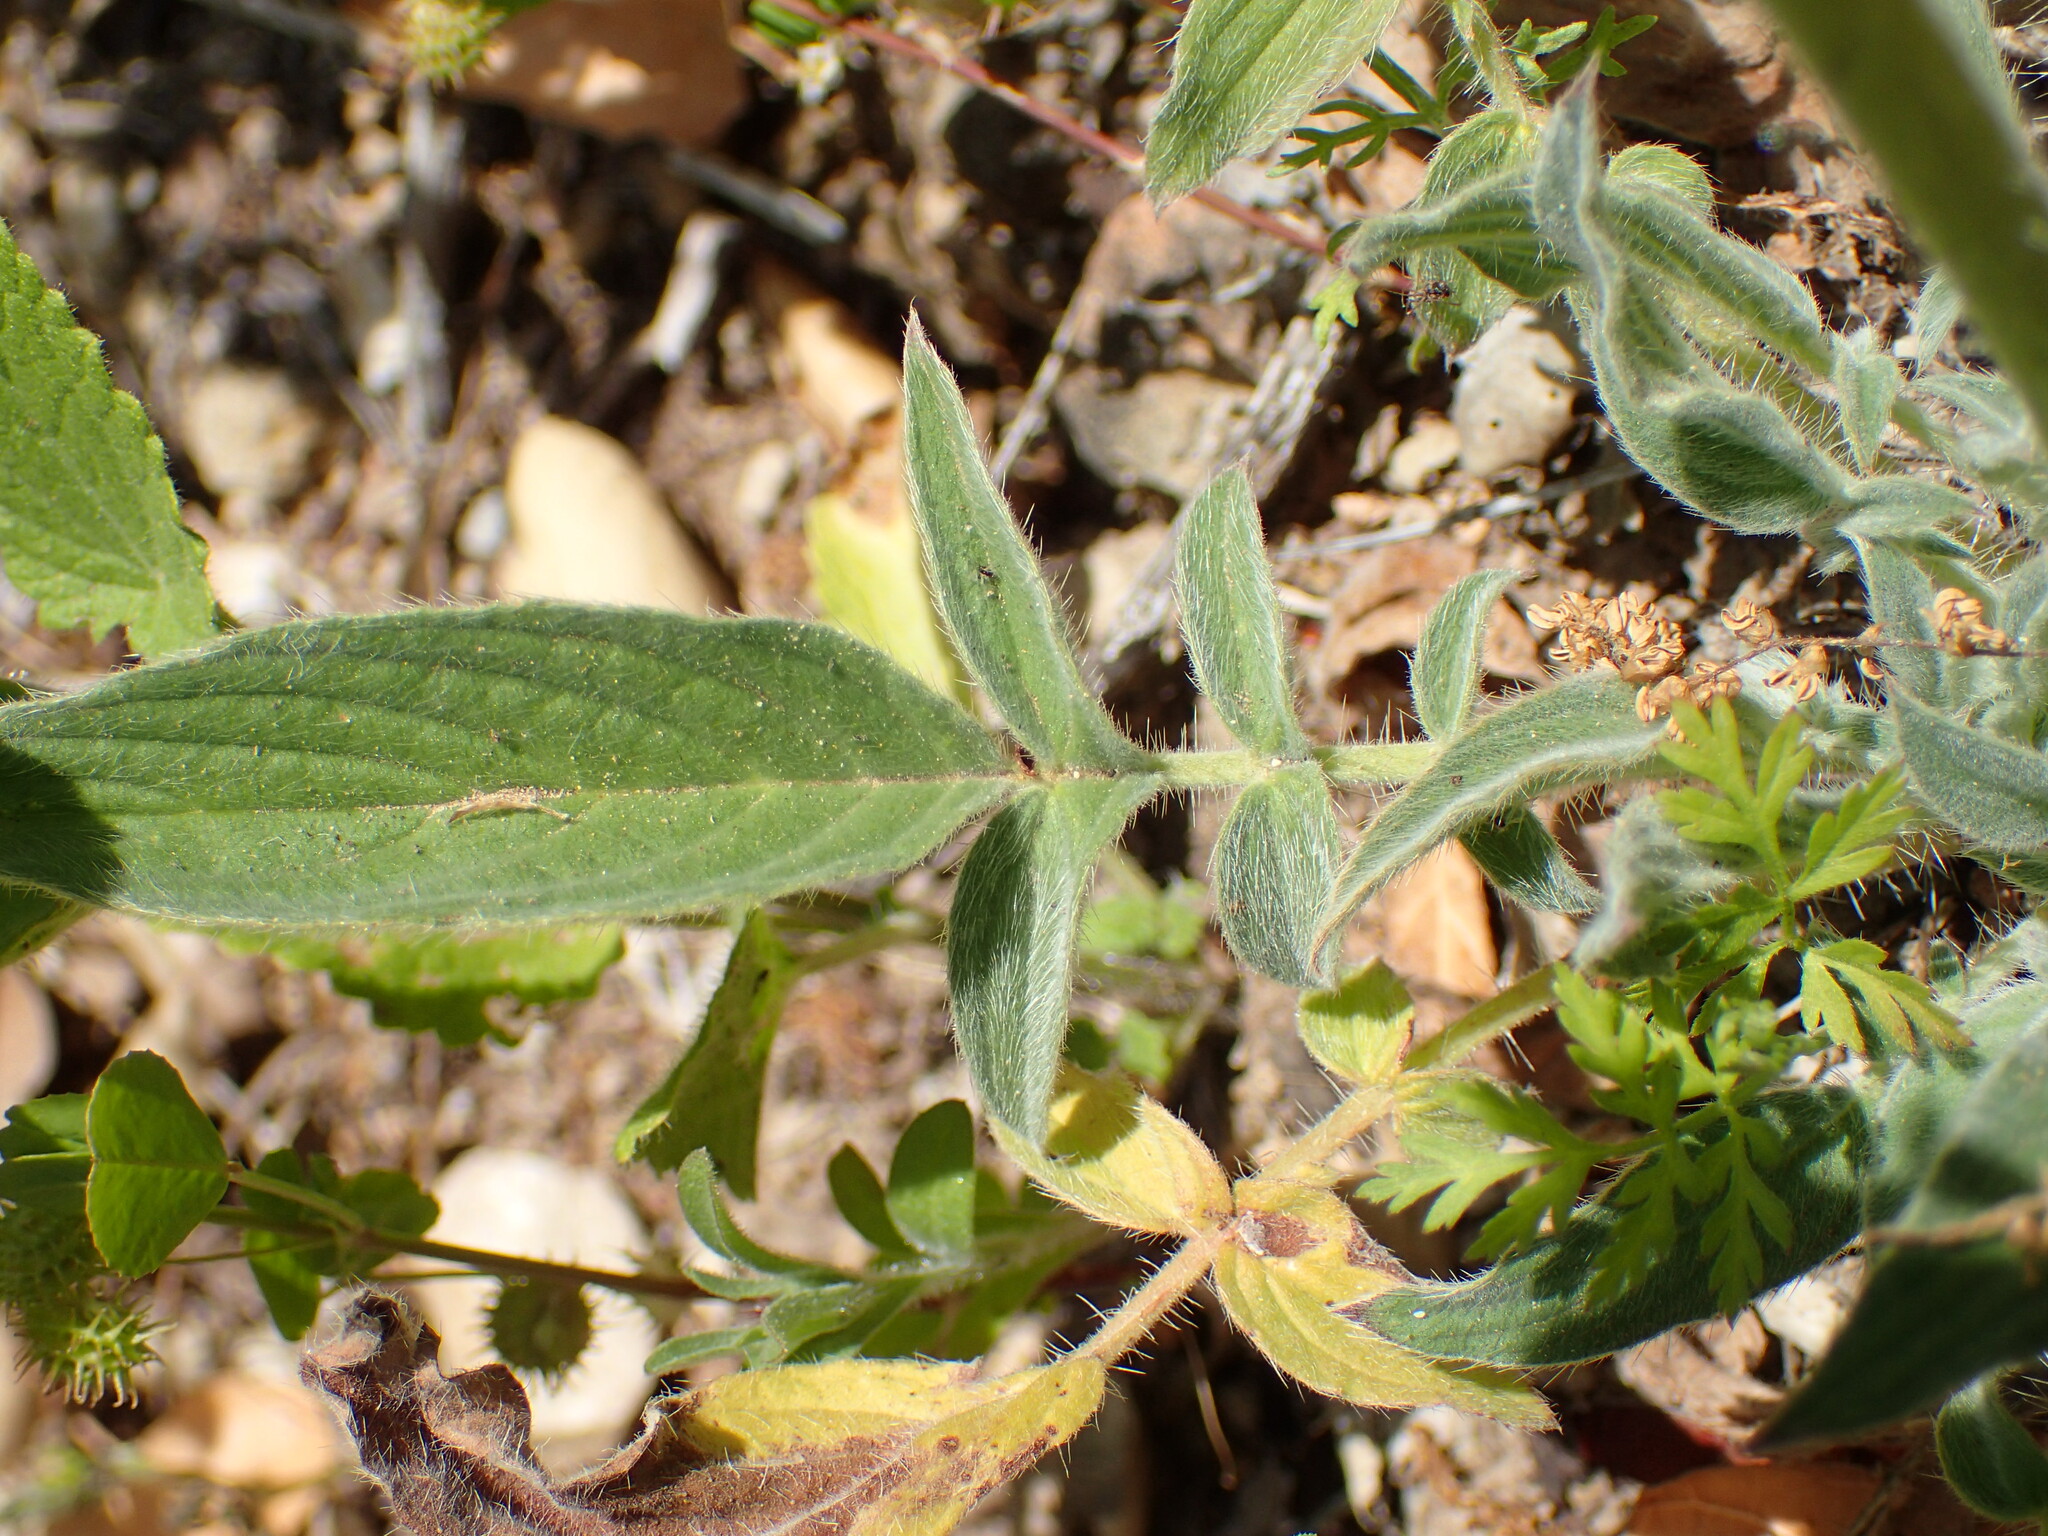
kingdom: Plantae
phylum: Tracheophyta
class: Magnoliopsida
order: Boraginales
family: Hydrophyllaceae
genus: Phacelia
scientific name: Phacelia imbricata
